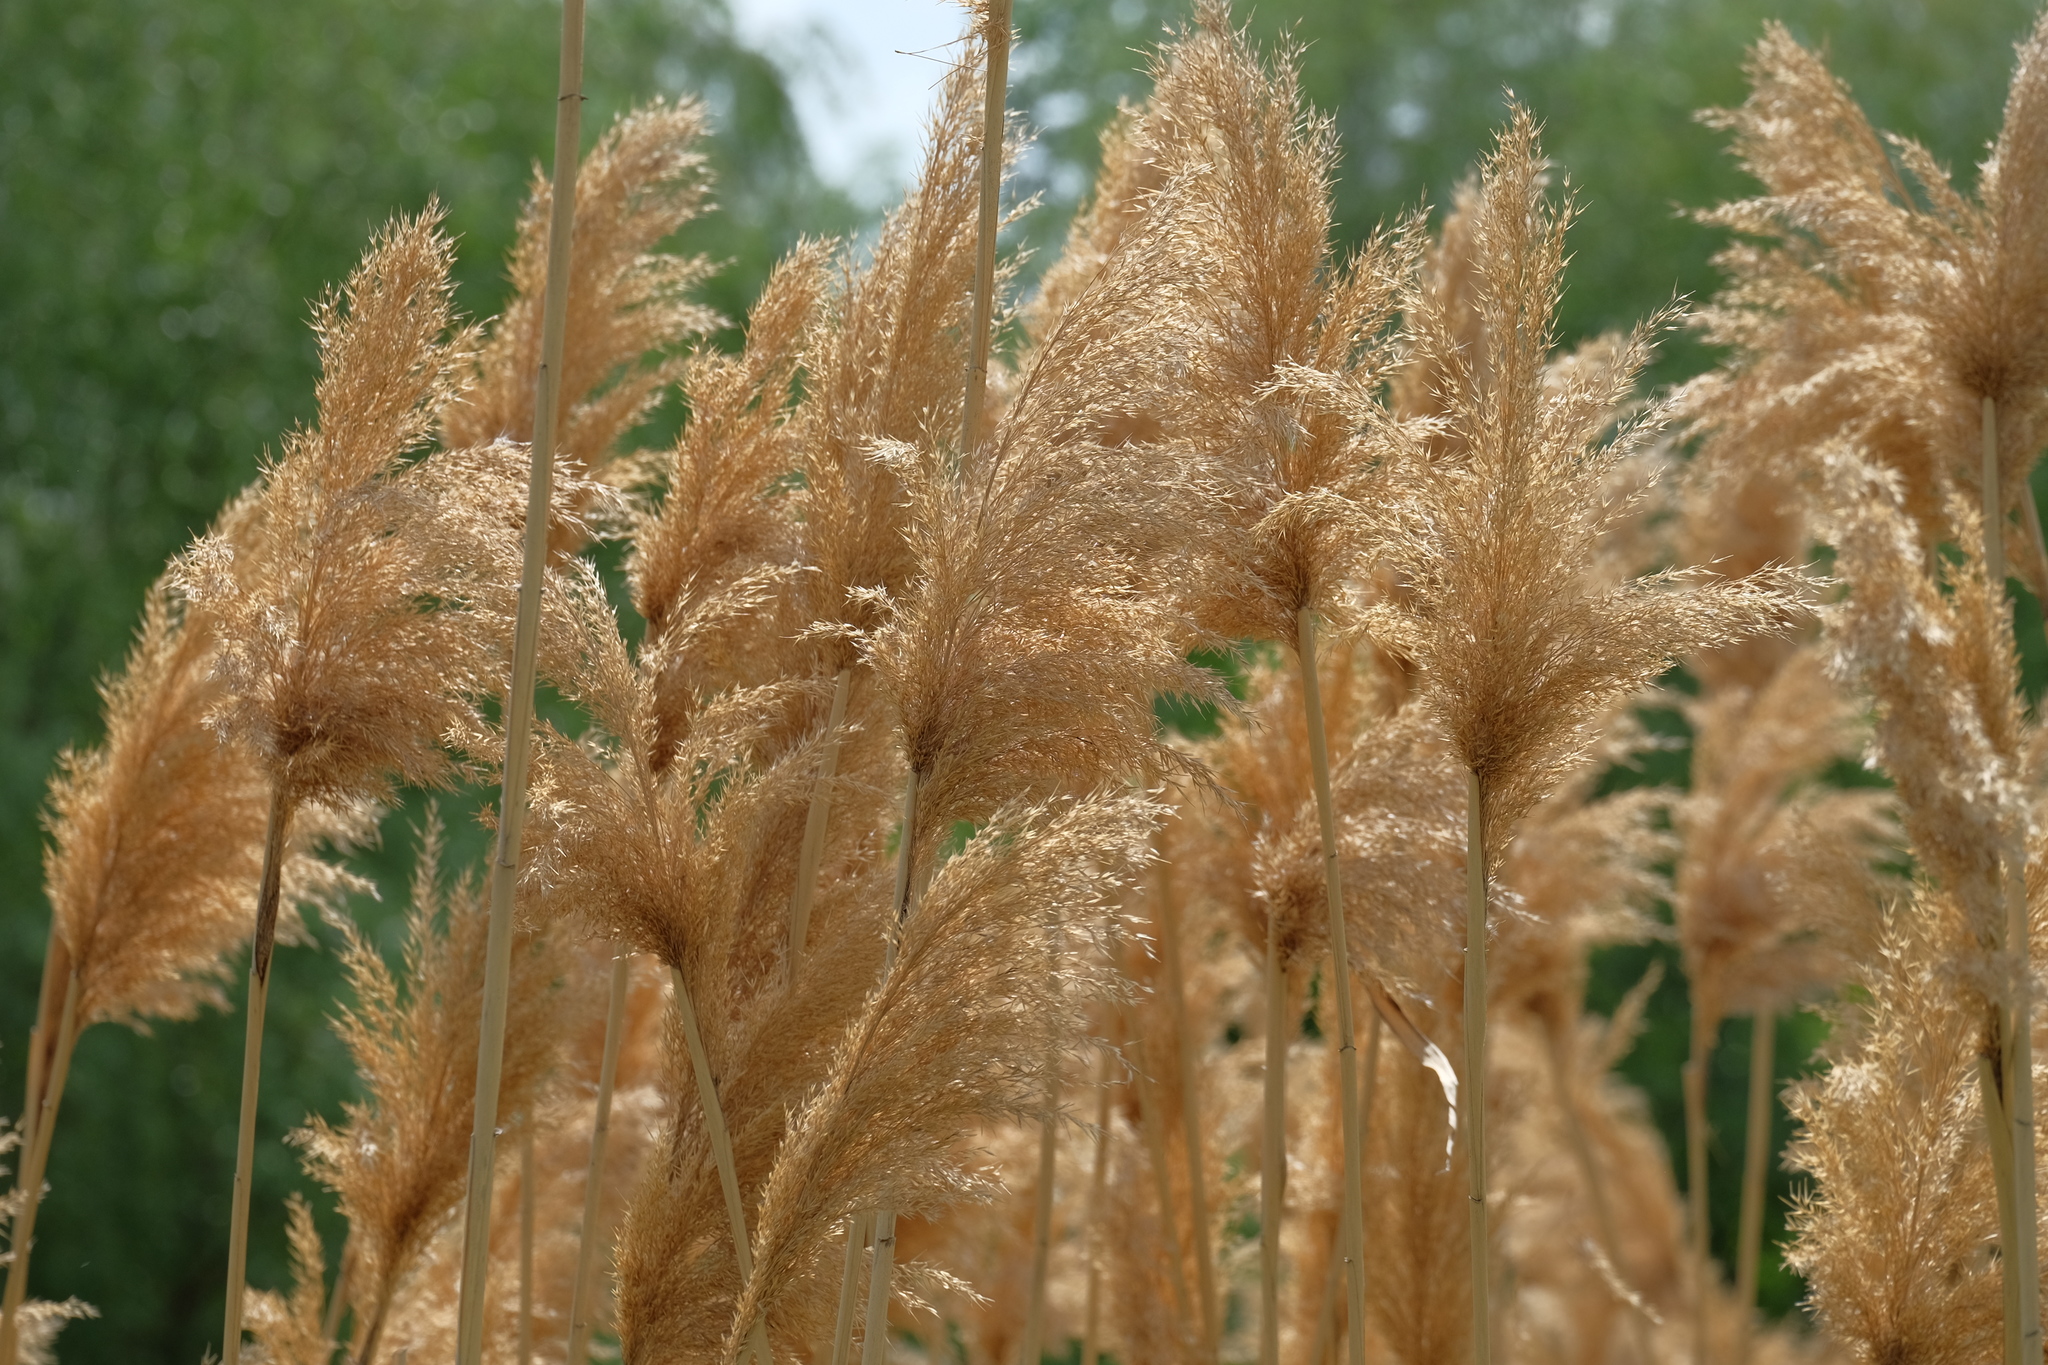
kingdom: Plantae
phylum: Tracheophyta
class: Liliopsida
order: Poales
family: Poaceae
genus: Phragmites
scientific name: Phragmites australis
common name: Common reed
